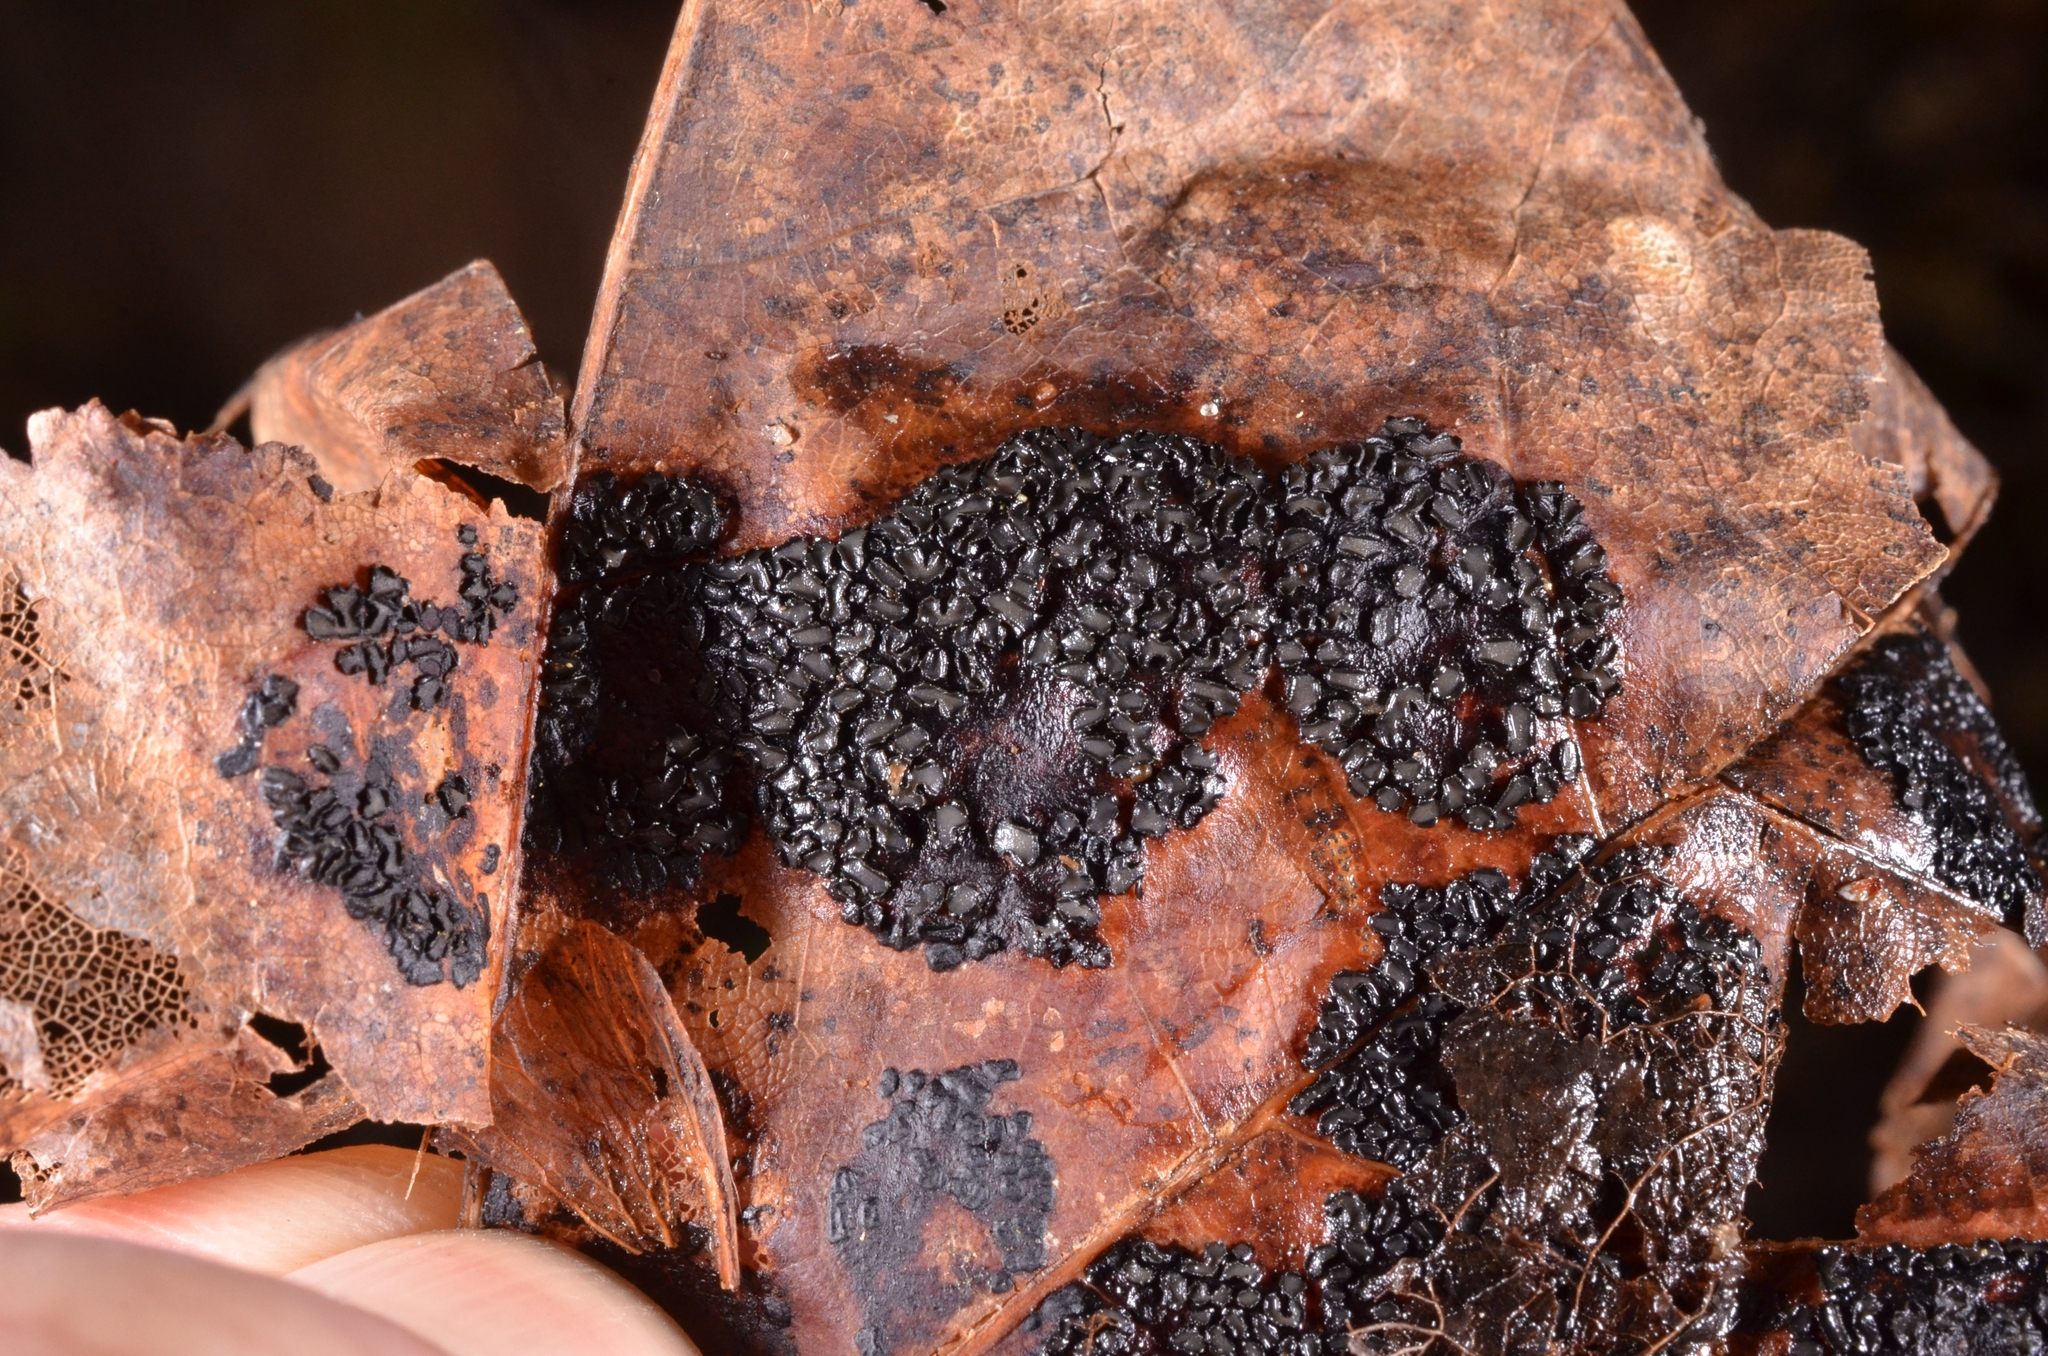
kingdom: Fungi
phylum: Ascomycota
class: Leotiomycetes
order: Rhytismatales
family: Rhytismataceae
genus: Rhytisma
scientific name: Rhytisma acerinum
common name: European tar spot
